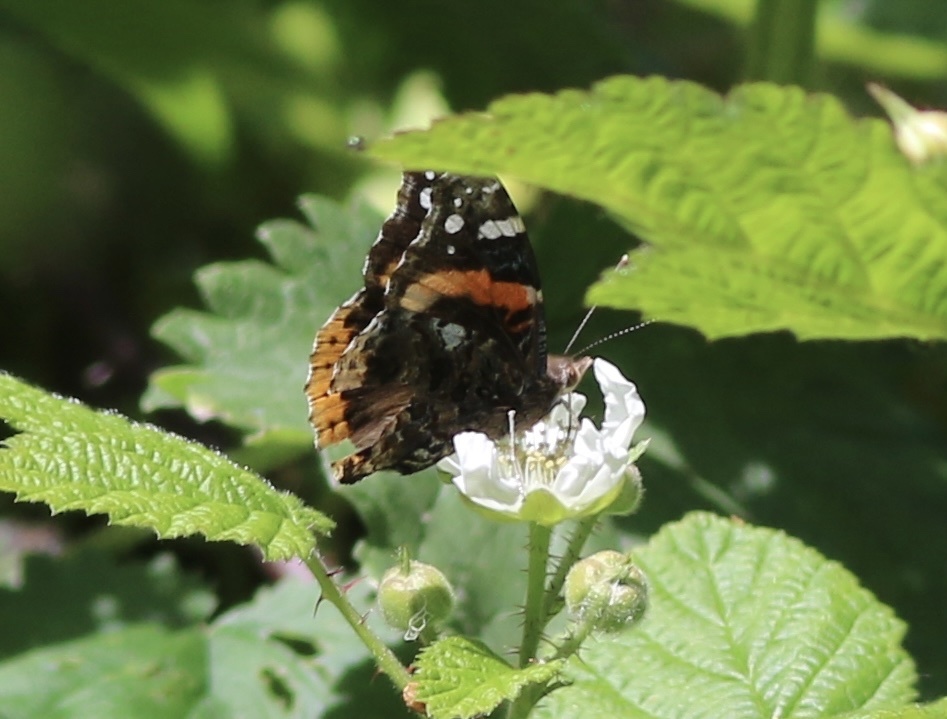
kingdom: Animalia
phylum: Arthropoda
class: Insecta
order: Lepidoptera
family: Nymphalidae
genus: Vanessa
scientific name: Vanessa atalanta
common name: Red admiral
